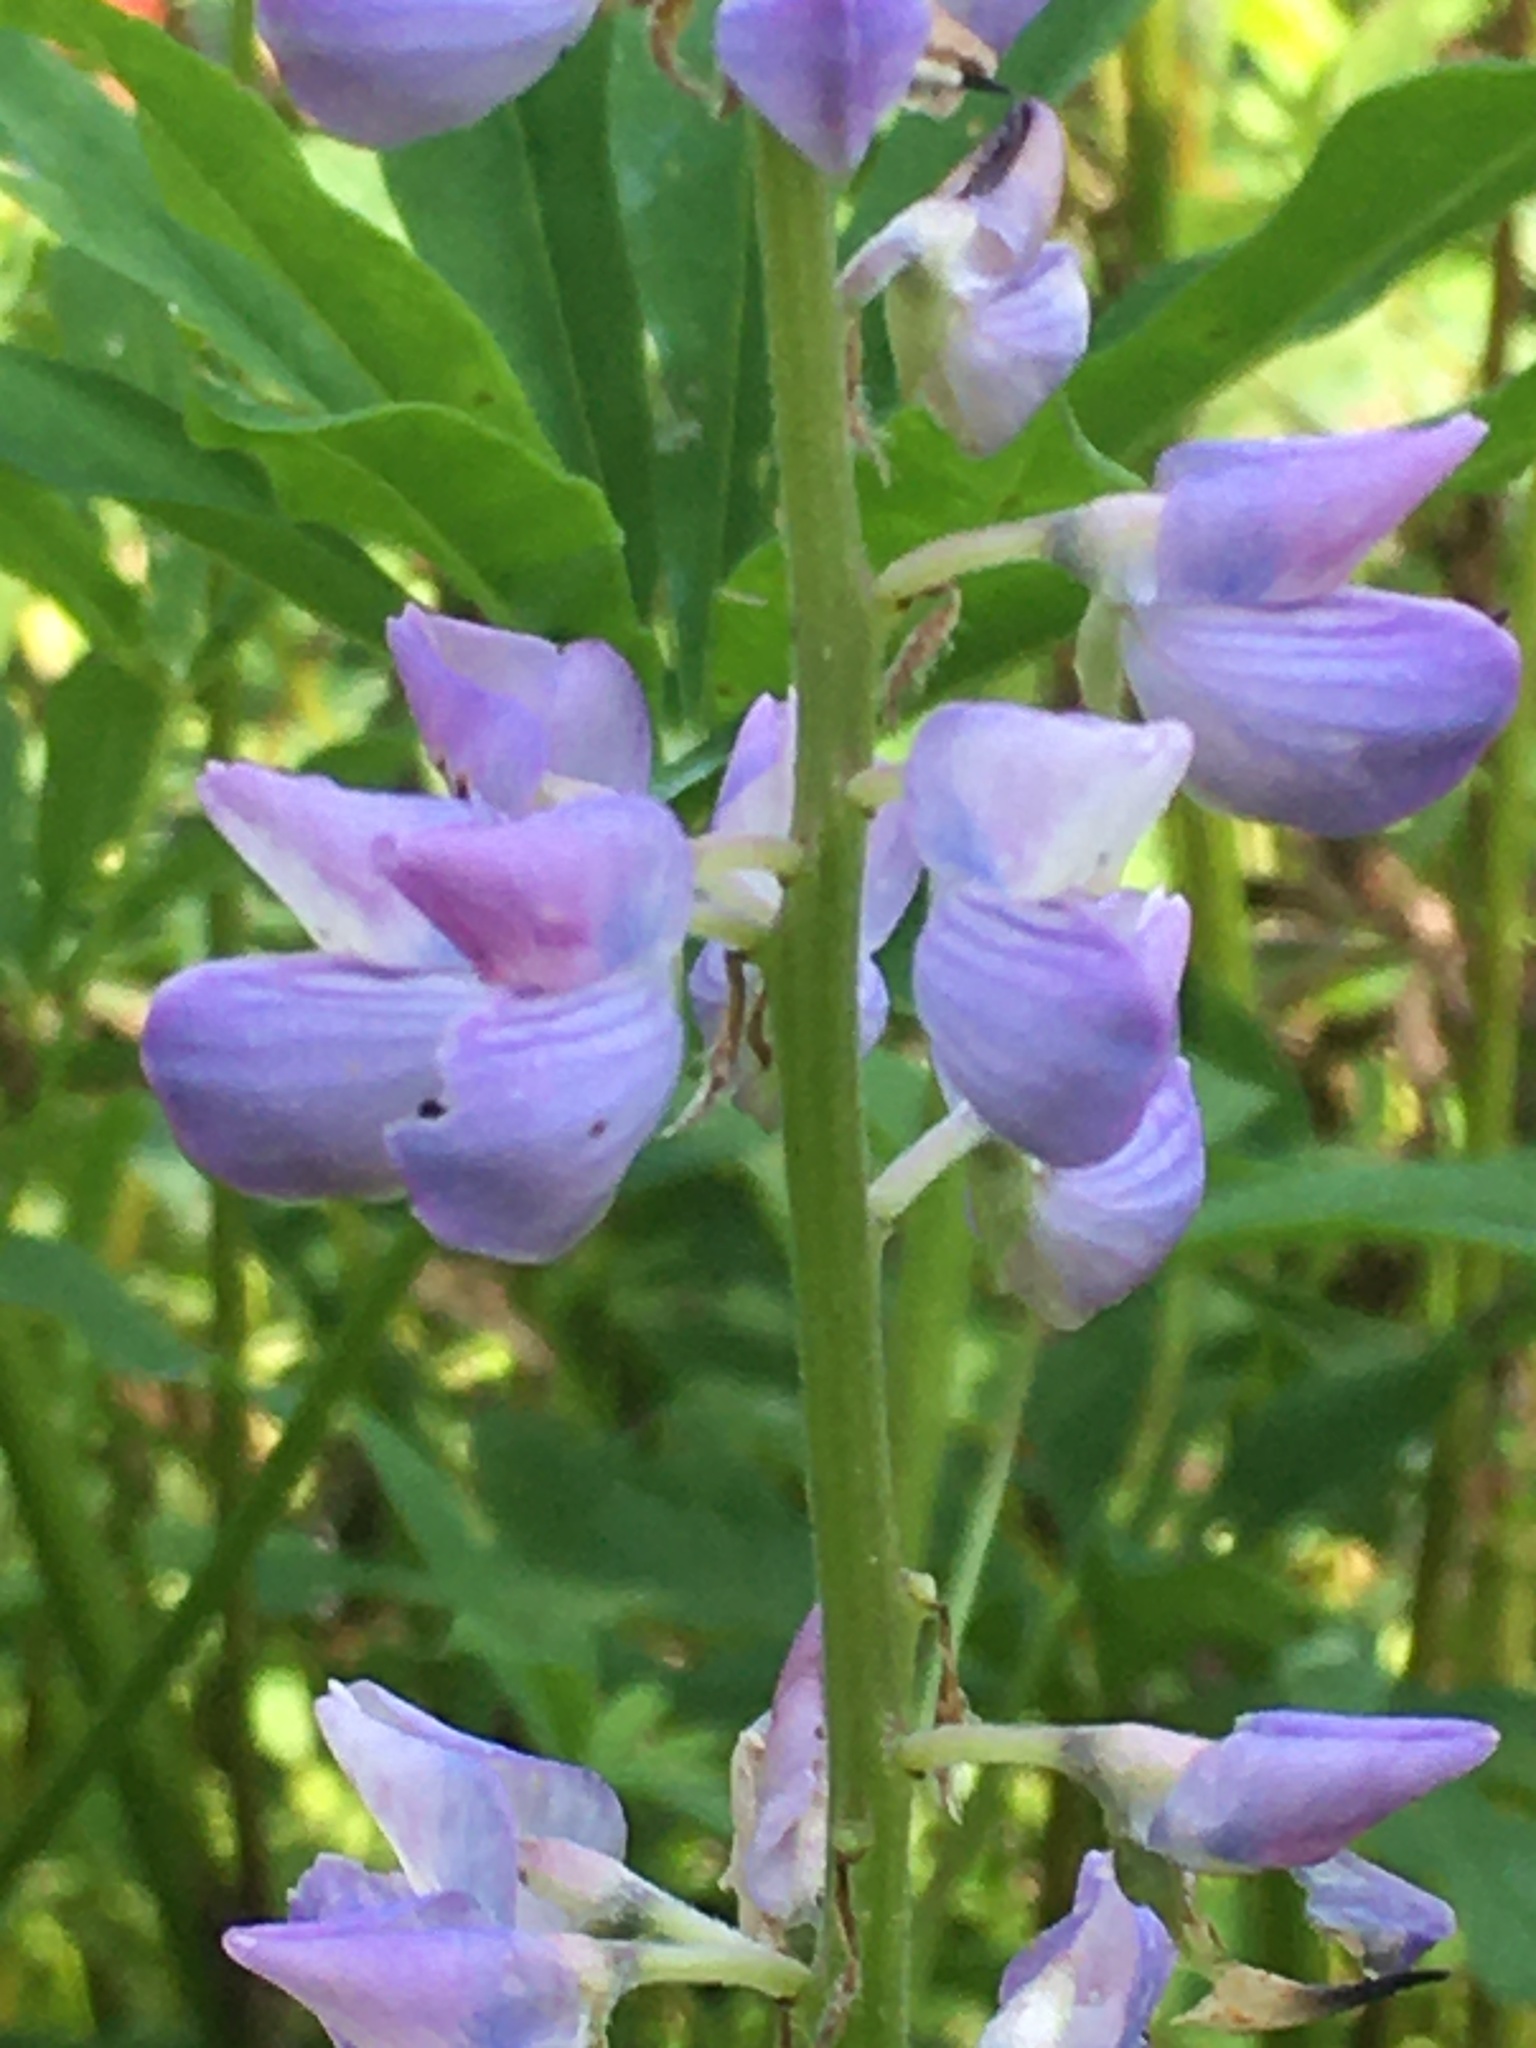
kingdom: Plantae
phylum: Tracheophyta
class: Magnoliopsida
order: Fabales
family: Fabaceae
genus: Lupinus
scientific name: Lupinus polyphyllus
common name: Garden lupin
